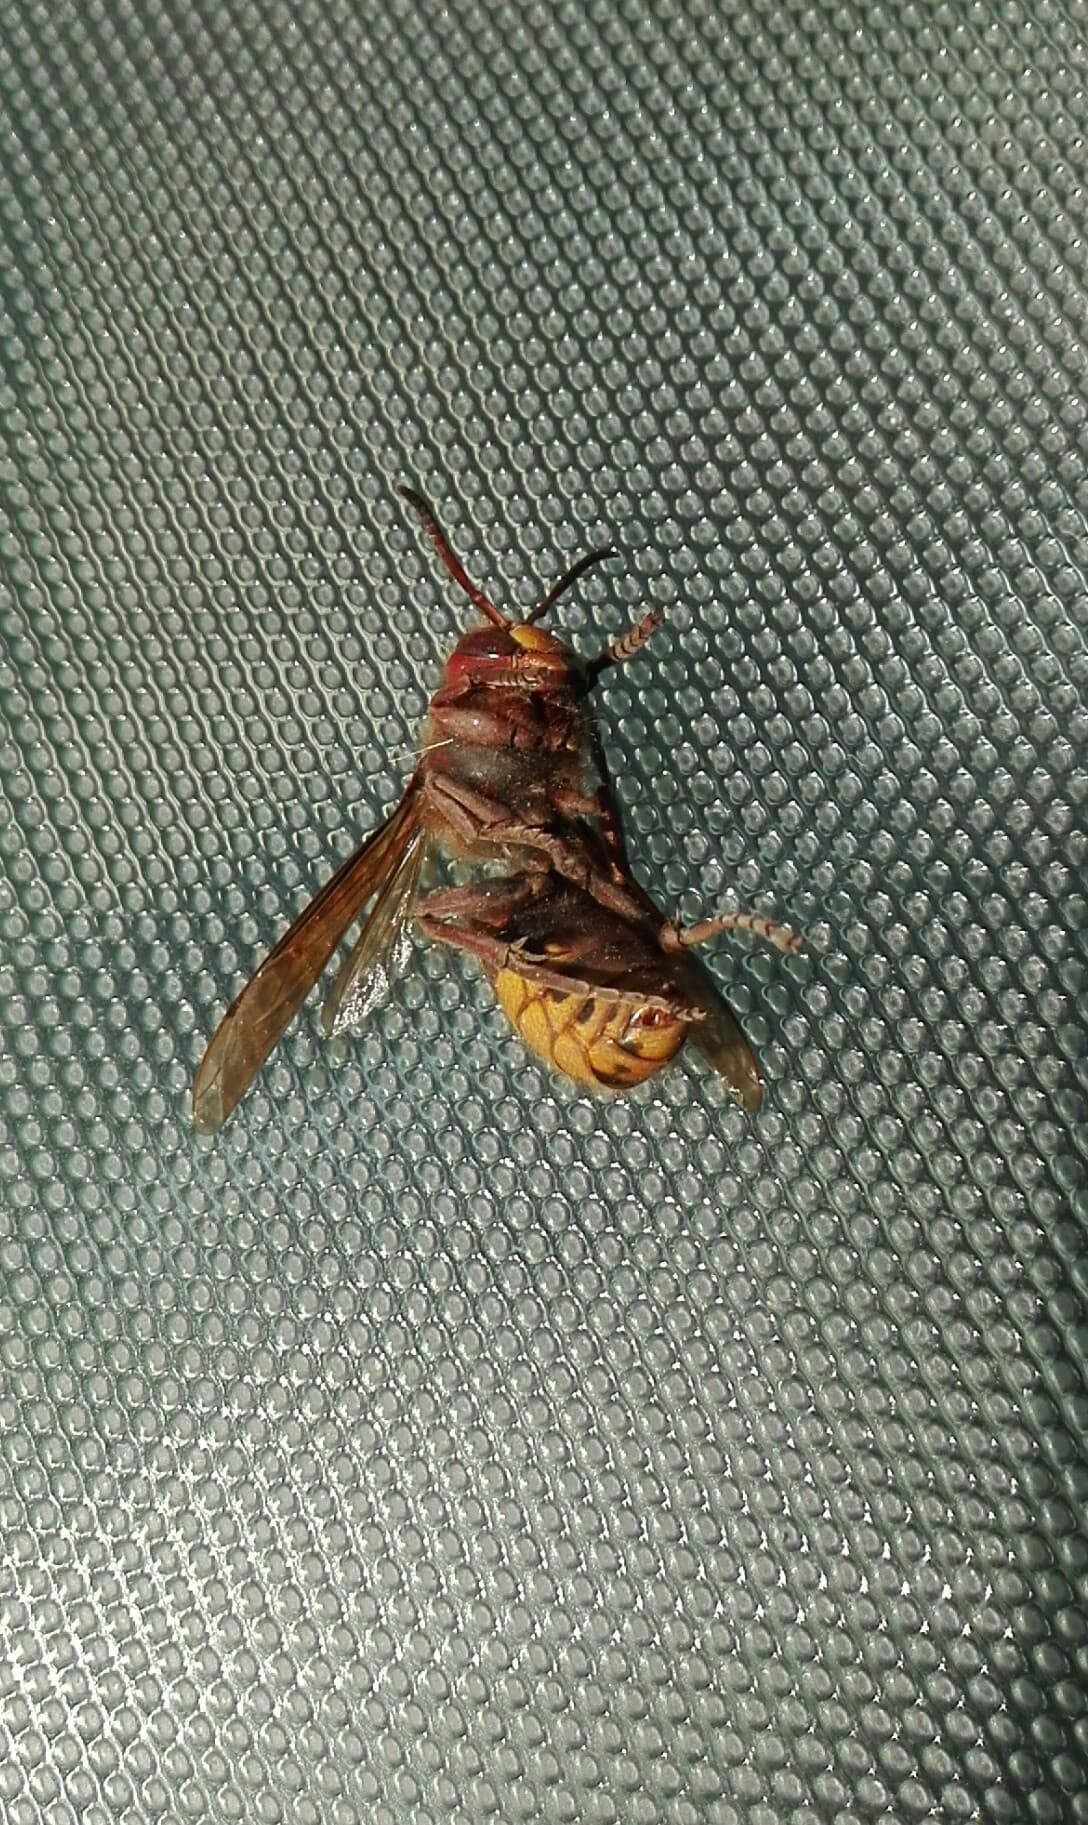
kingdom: Animalia
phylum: Arthropoda
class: Insecta
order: Hymenoptera
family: Vespidae
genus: Vespa
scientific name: Vespa crabro
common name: Hornet
